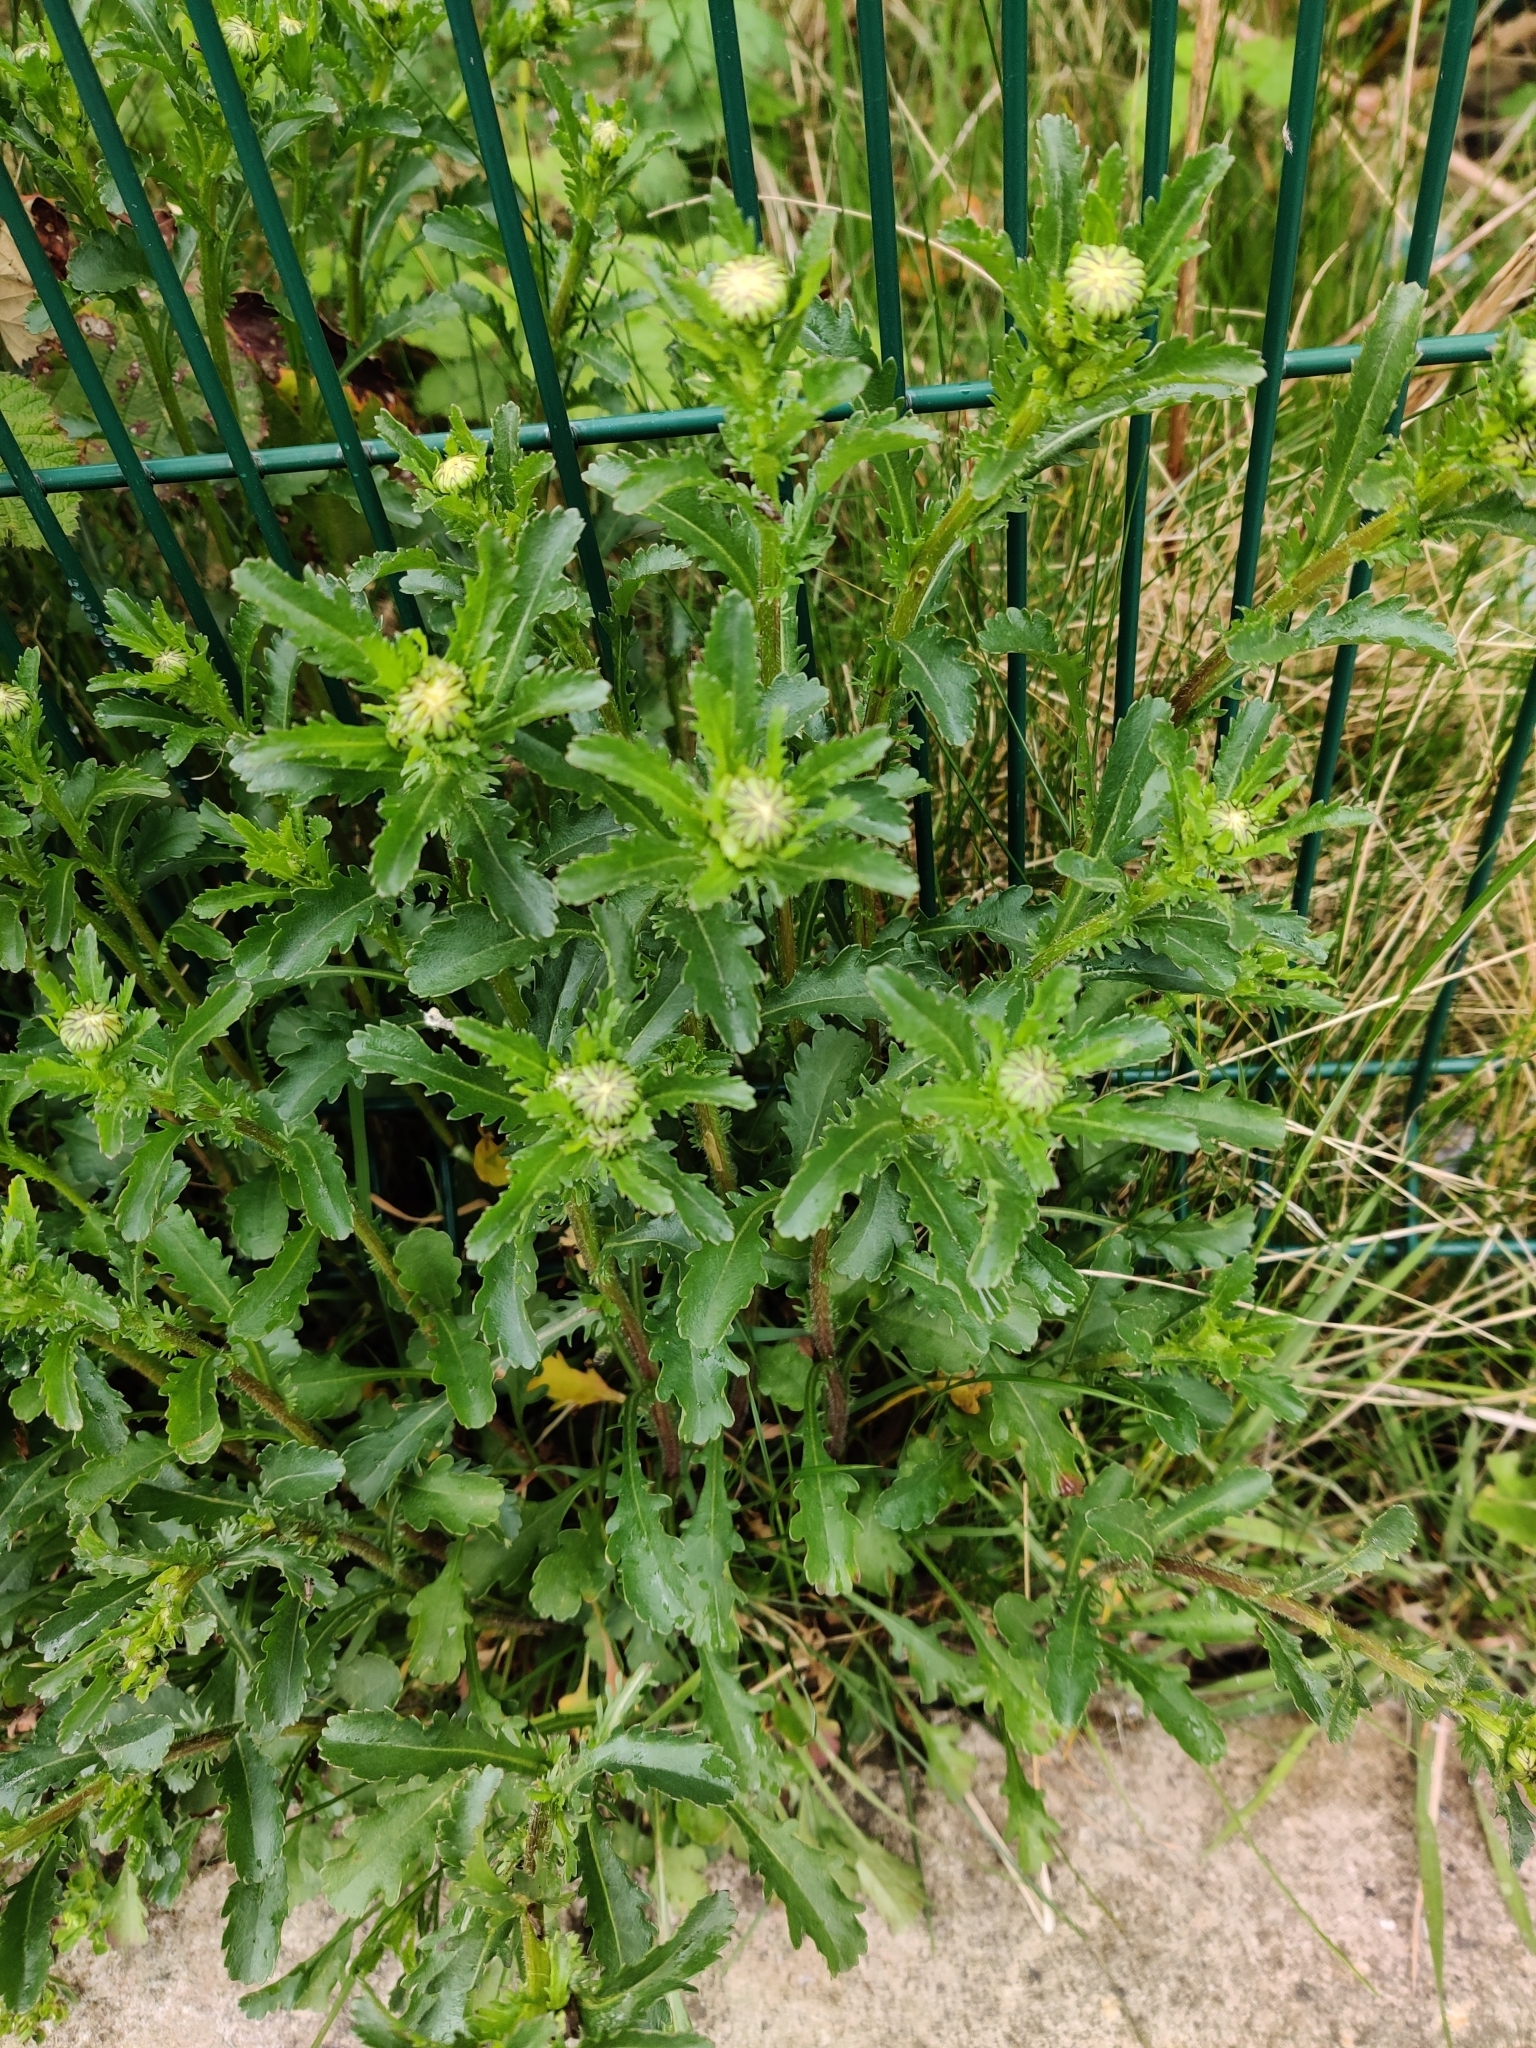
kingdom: Plantae
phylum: Tracheophyta
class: Magnoliopsida
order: Asterales
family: Asteraceae
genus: Leucanthemum
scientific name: Leucanthemum vulgare
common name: Oxeye daisy
